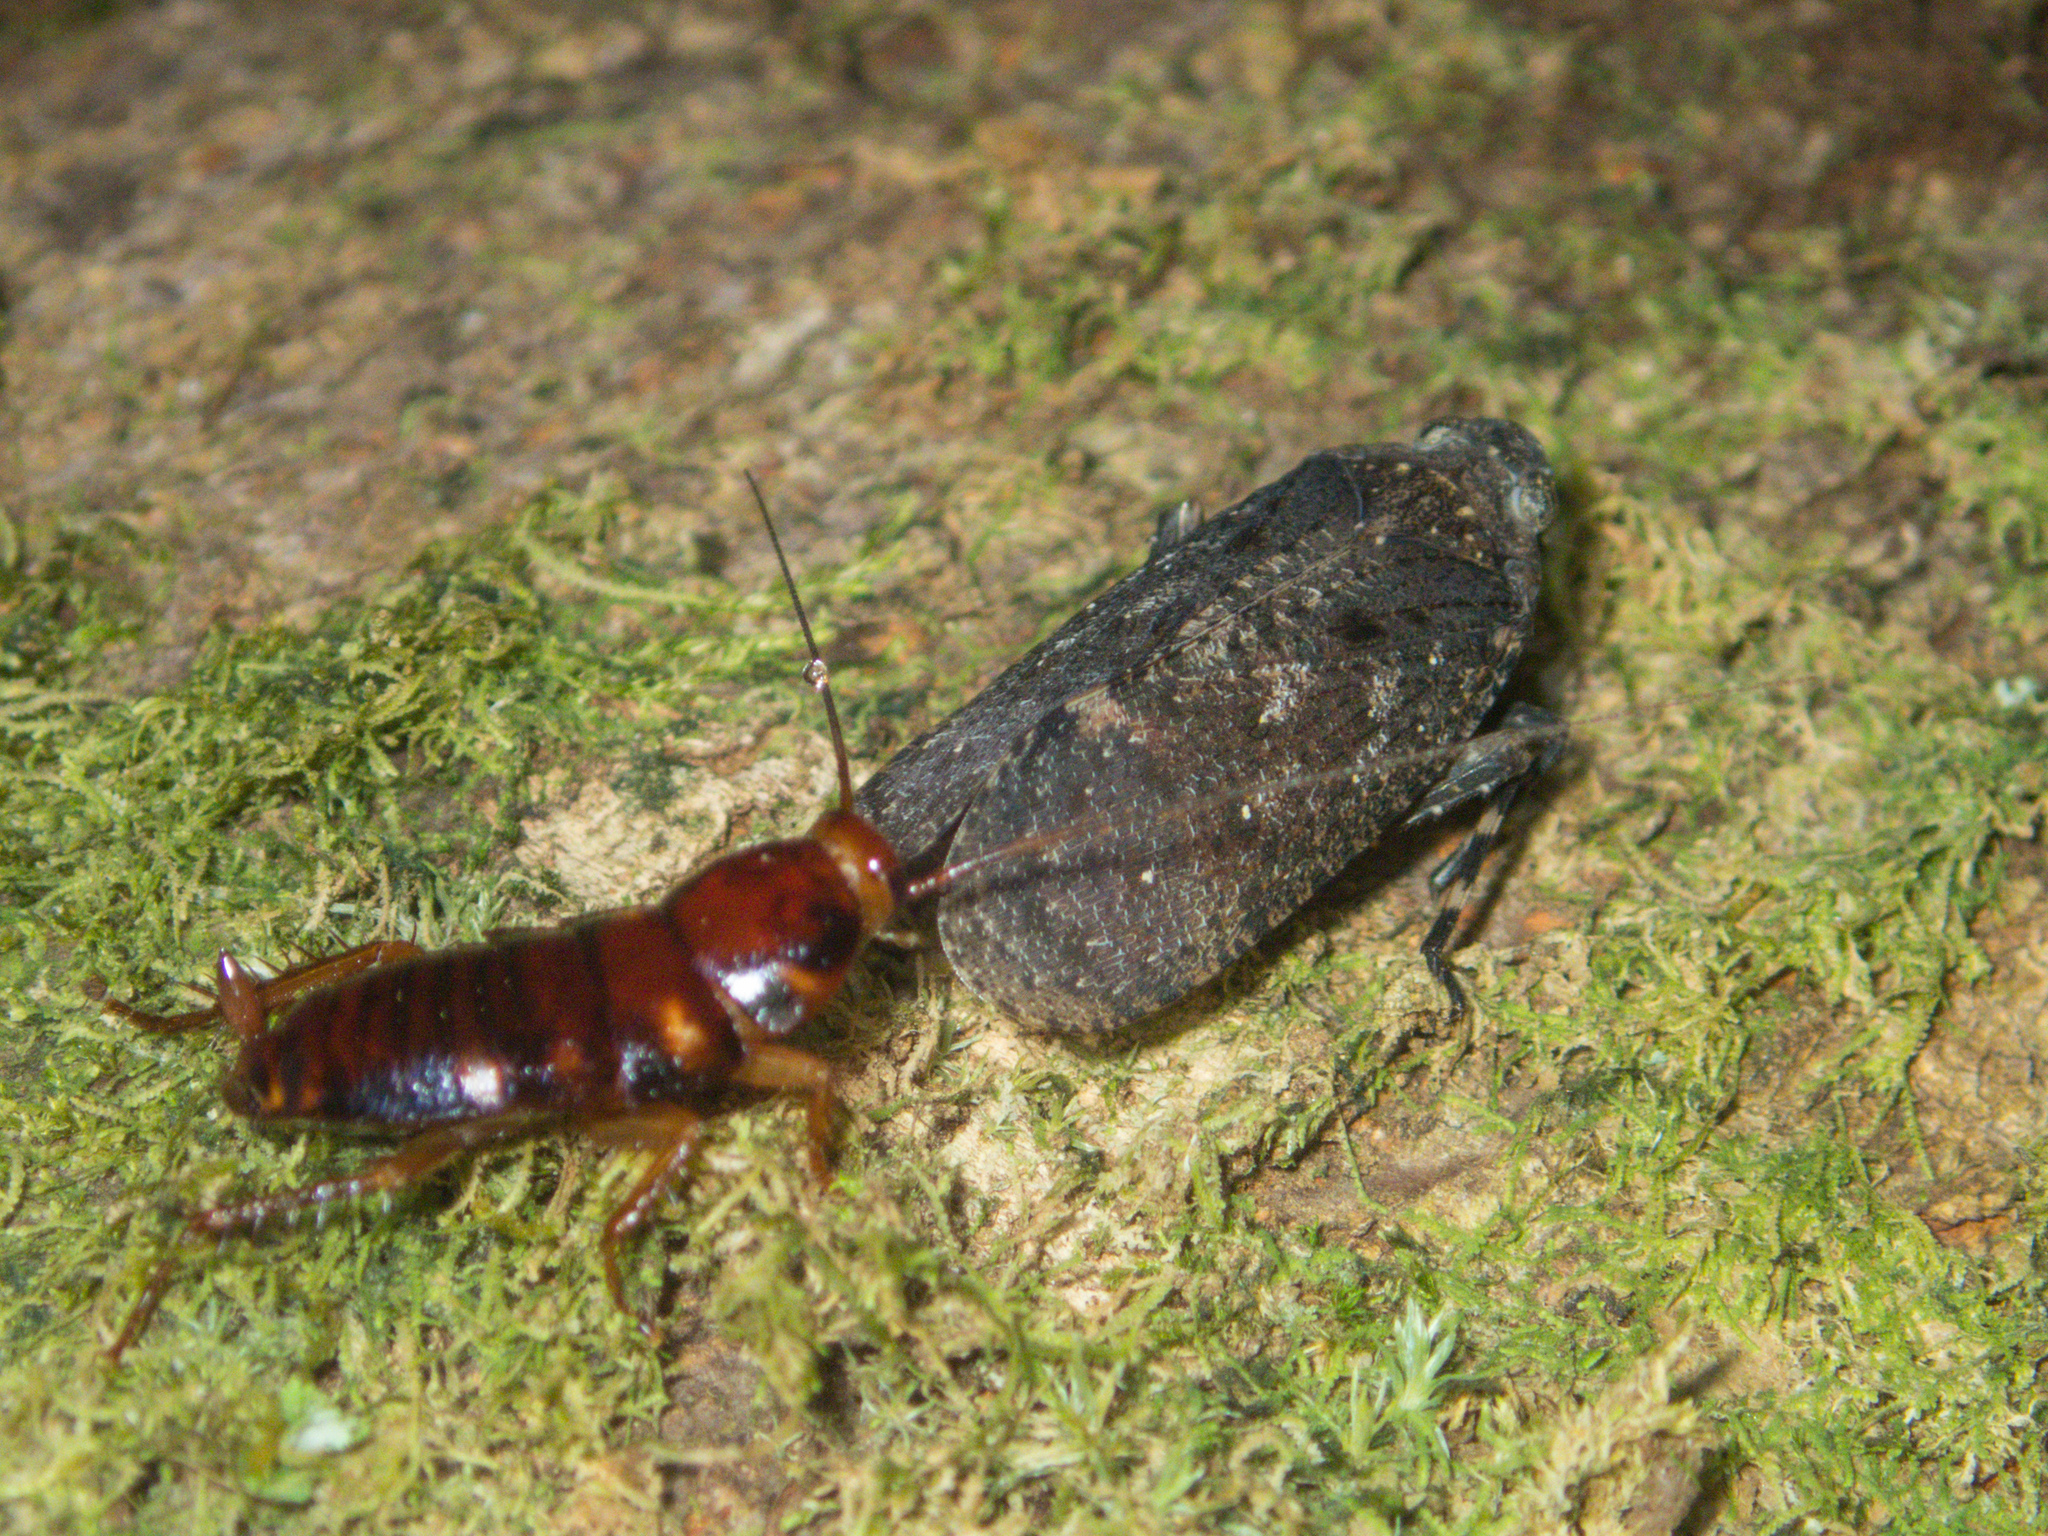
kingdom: Animalia
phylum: Arthropoda
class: Insecta
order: Hemiptera
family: Fulgoridae
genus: Penthicodes
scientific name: Penthicodes pulchella
